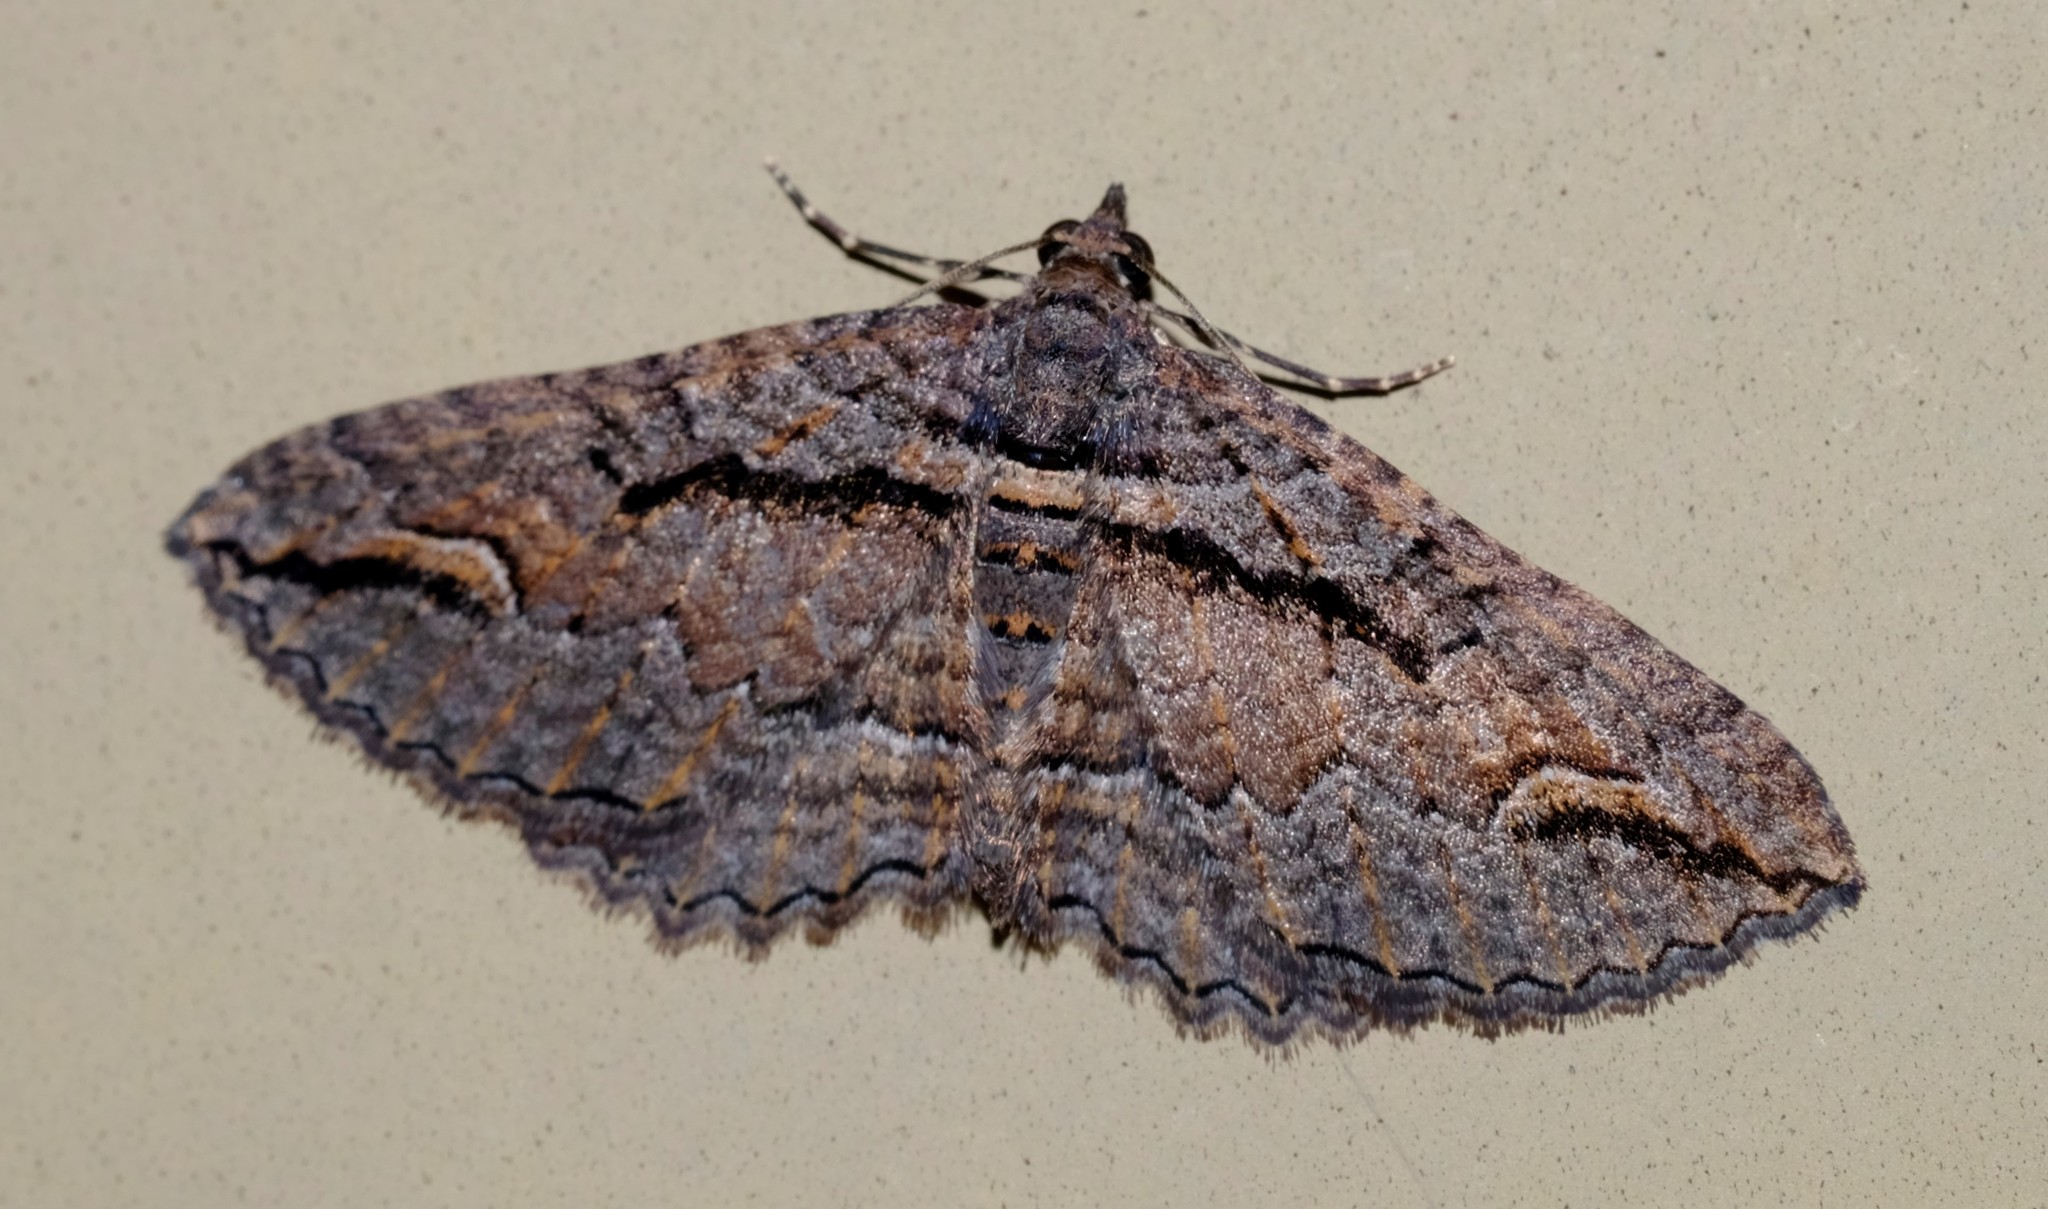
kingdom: Animalia
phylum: Arthropoda
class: Insecta
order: Lepidoptera
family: Geometridae
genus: Chrysolarentia
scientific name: Chrysolarentia plagiocausta
